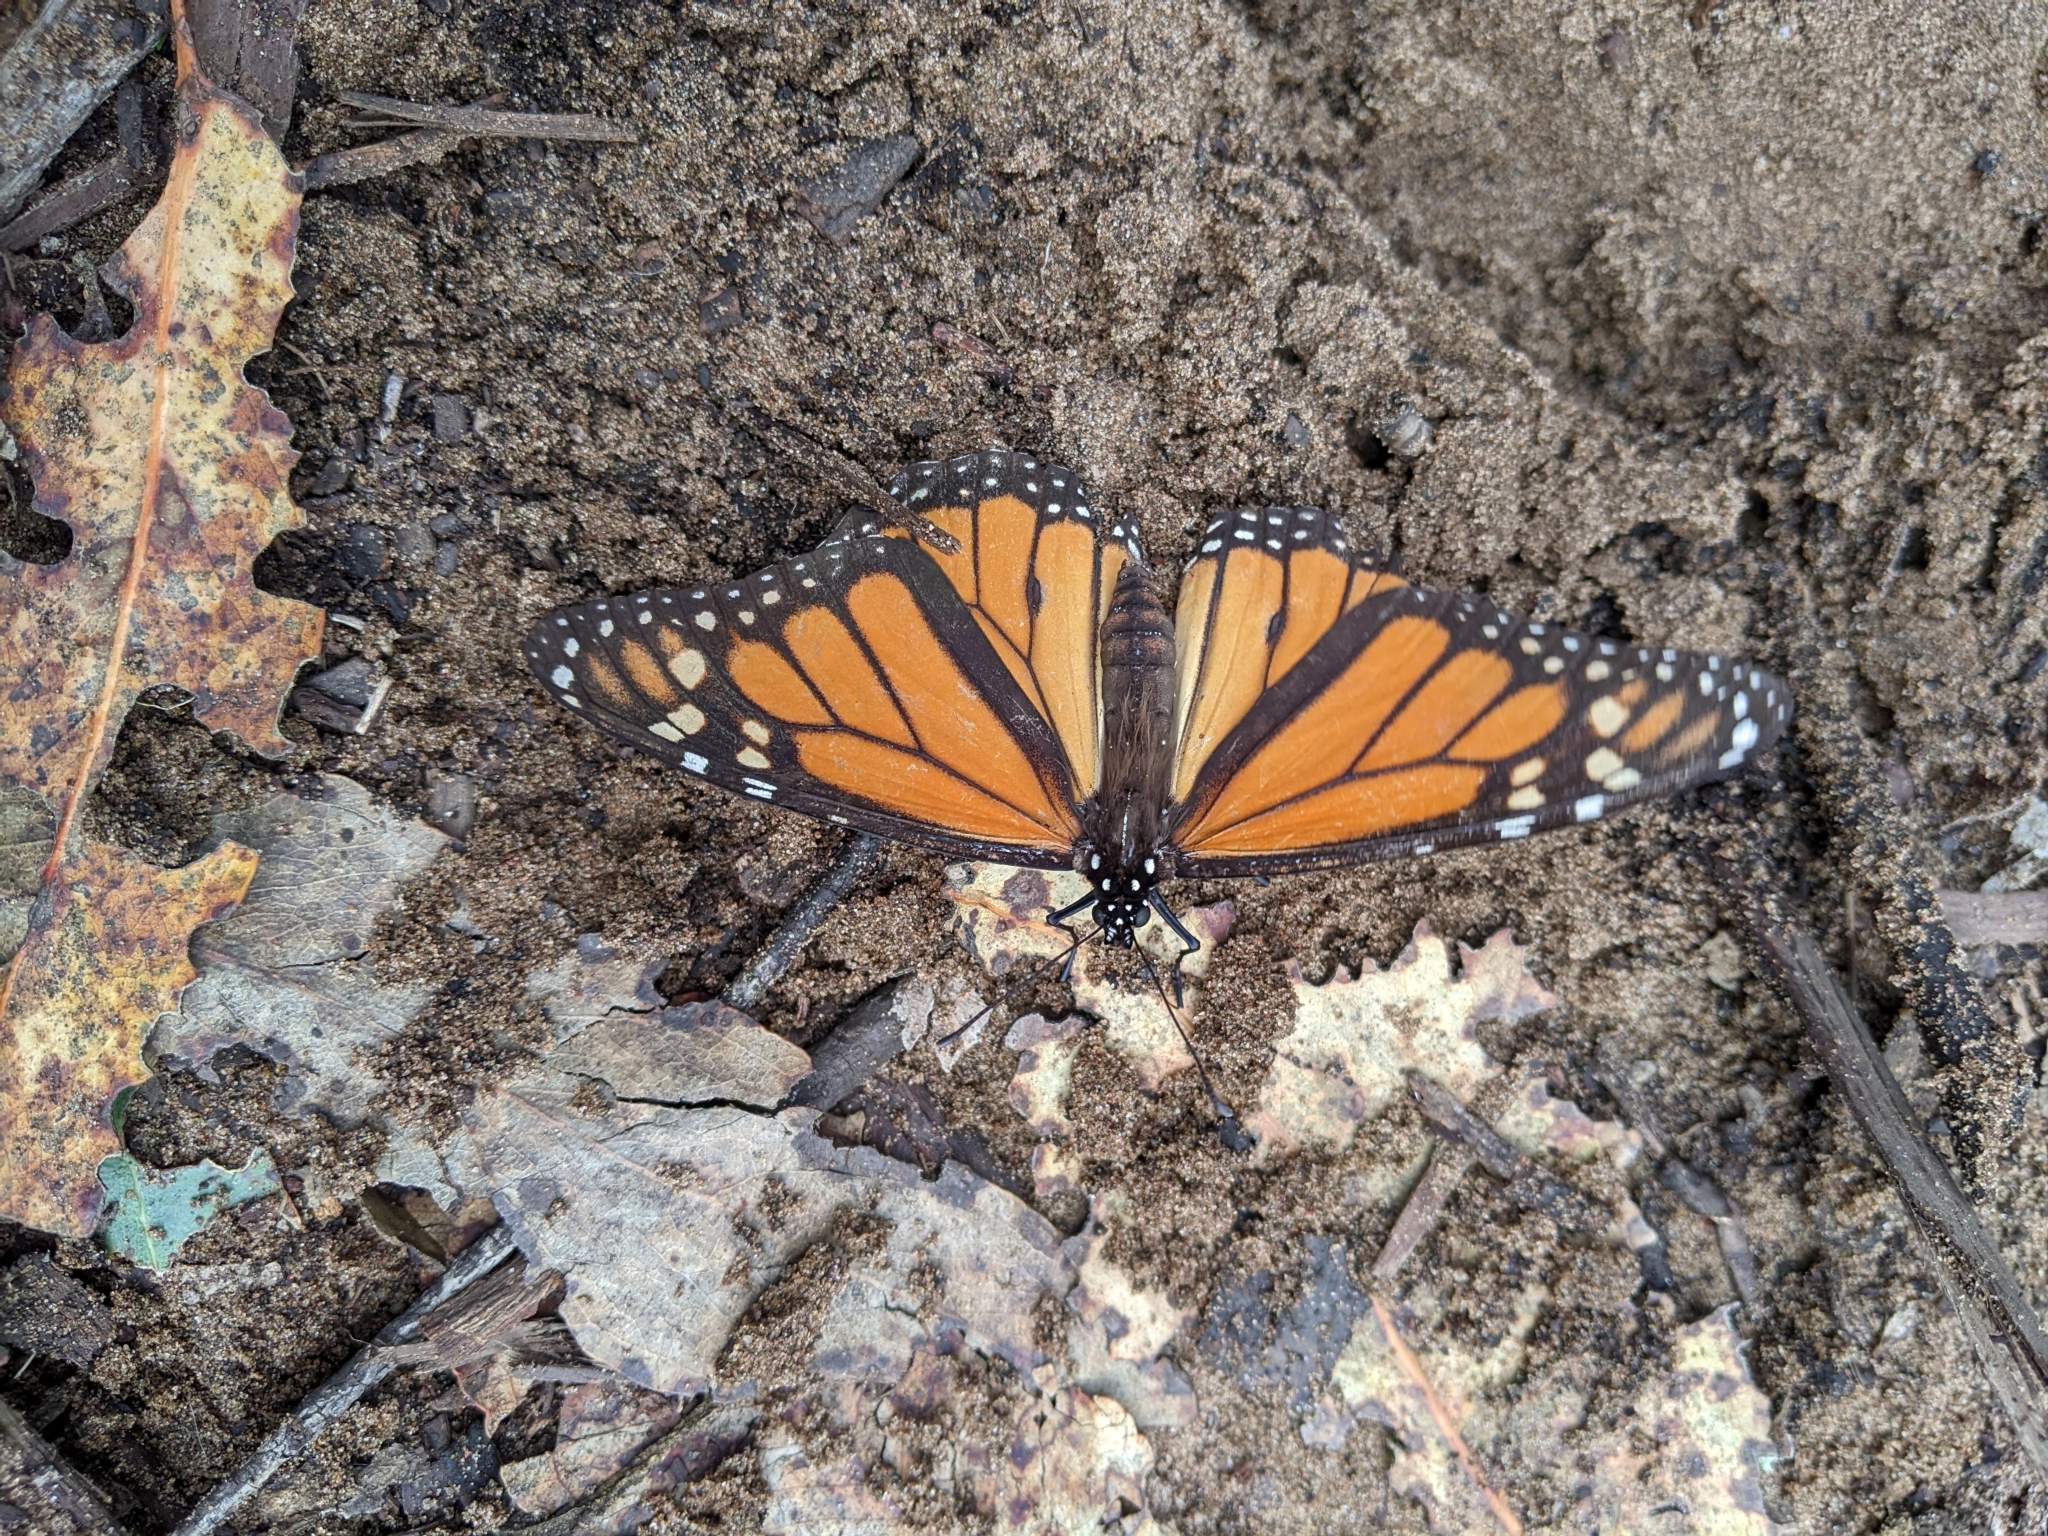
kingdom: Animalia
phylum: Arthropoda
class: Insecta
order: Lepidoptera
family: Nymphalidae
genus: Danaus
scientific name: Danaus plexippus
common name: Monarch
